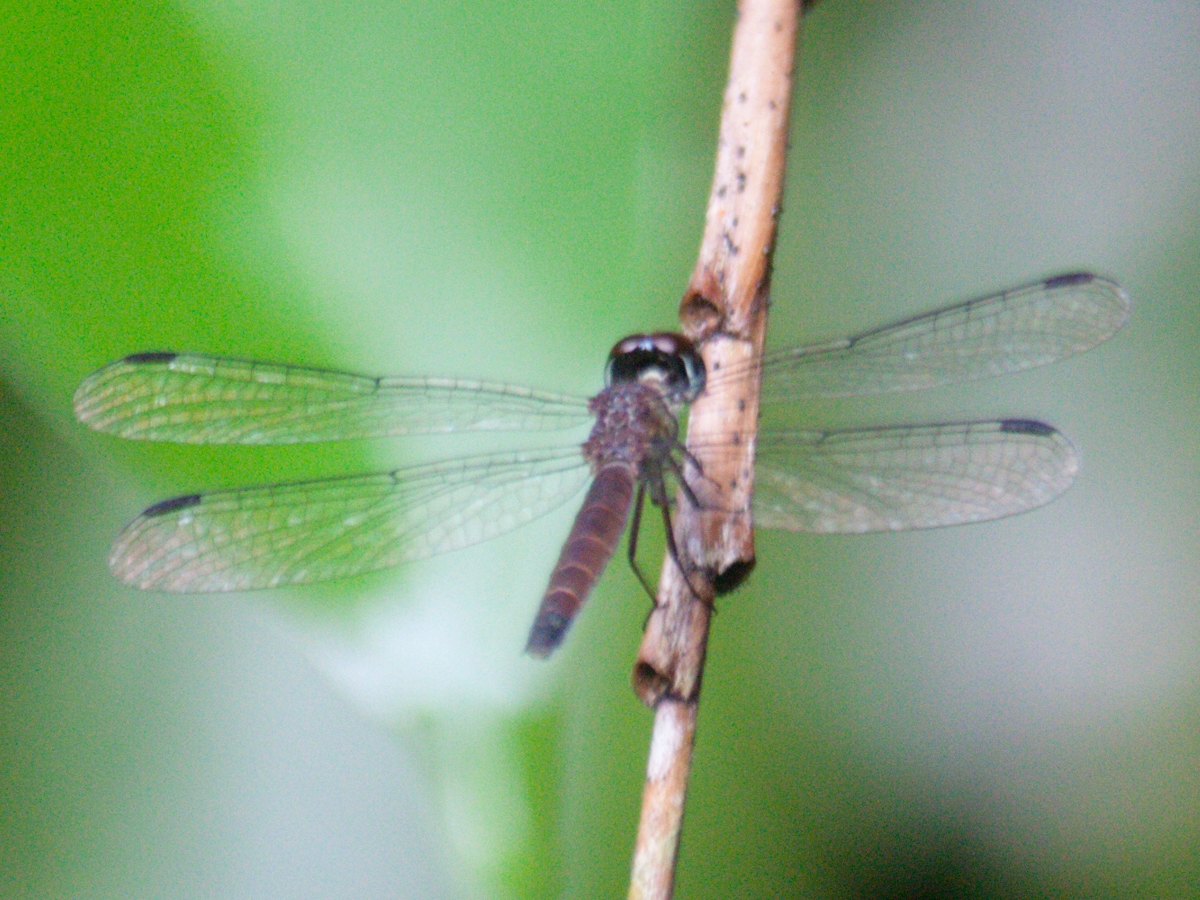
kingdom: Animalia
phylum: Arthropoda
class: Insecta
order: Odonata
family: Libellulidae
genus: Brachygonia
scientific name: Brachygonia oculata
